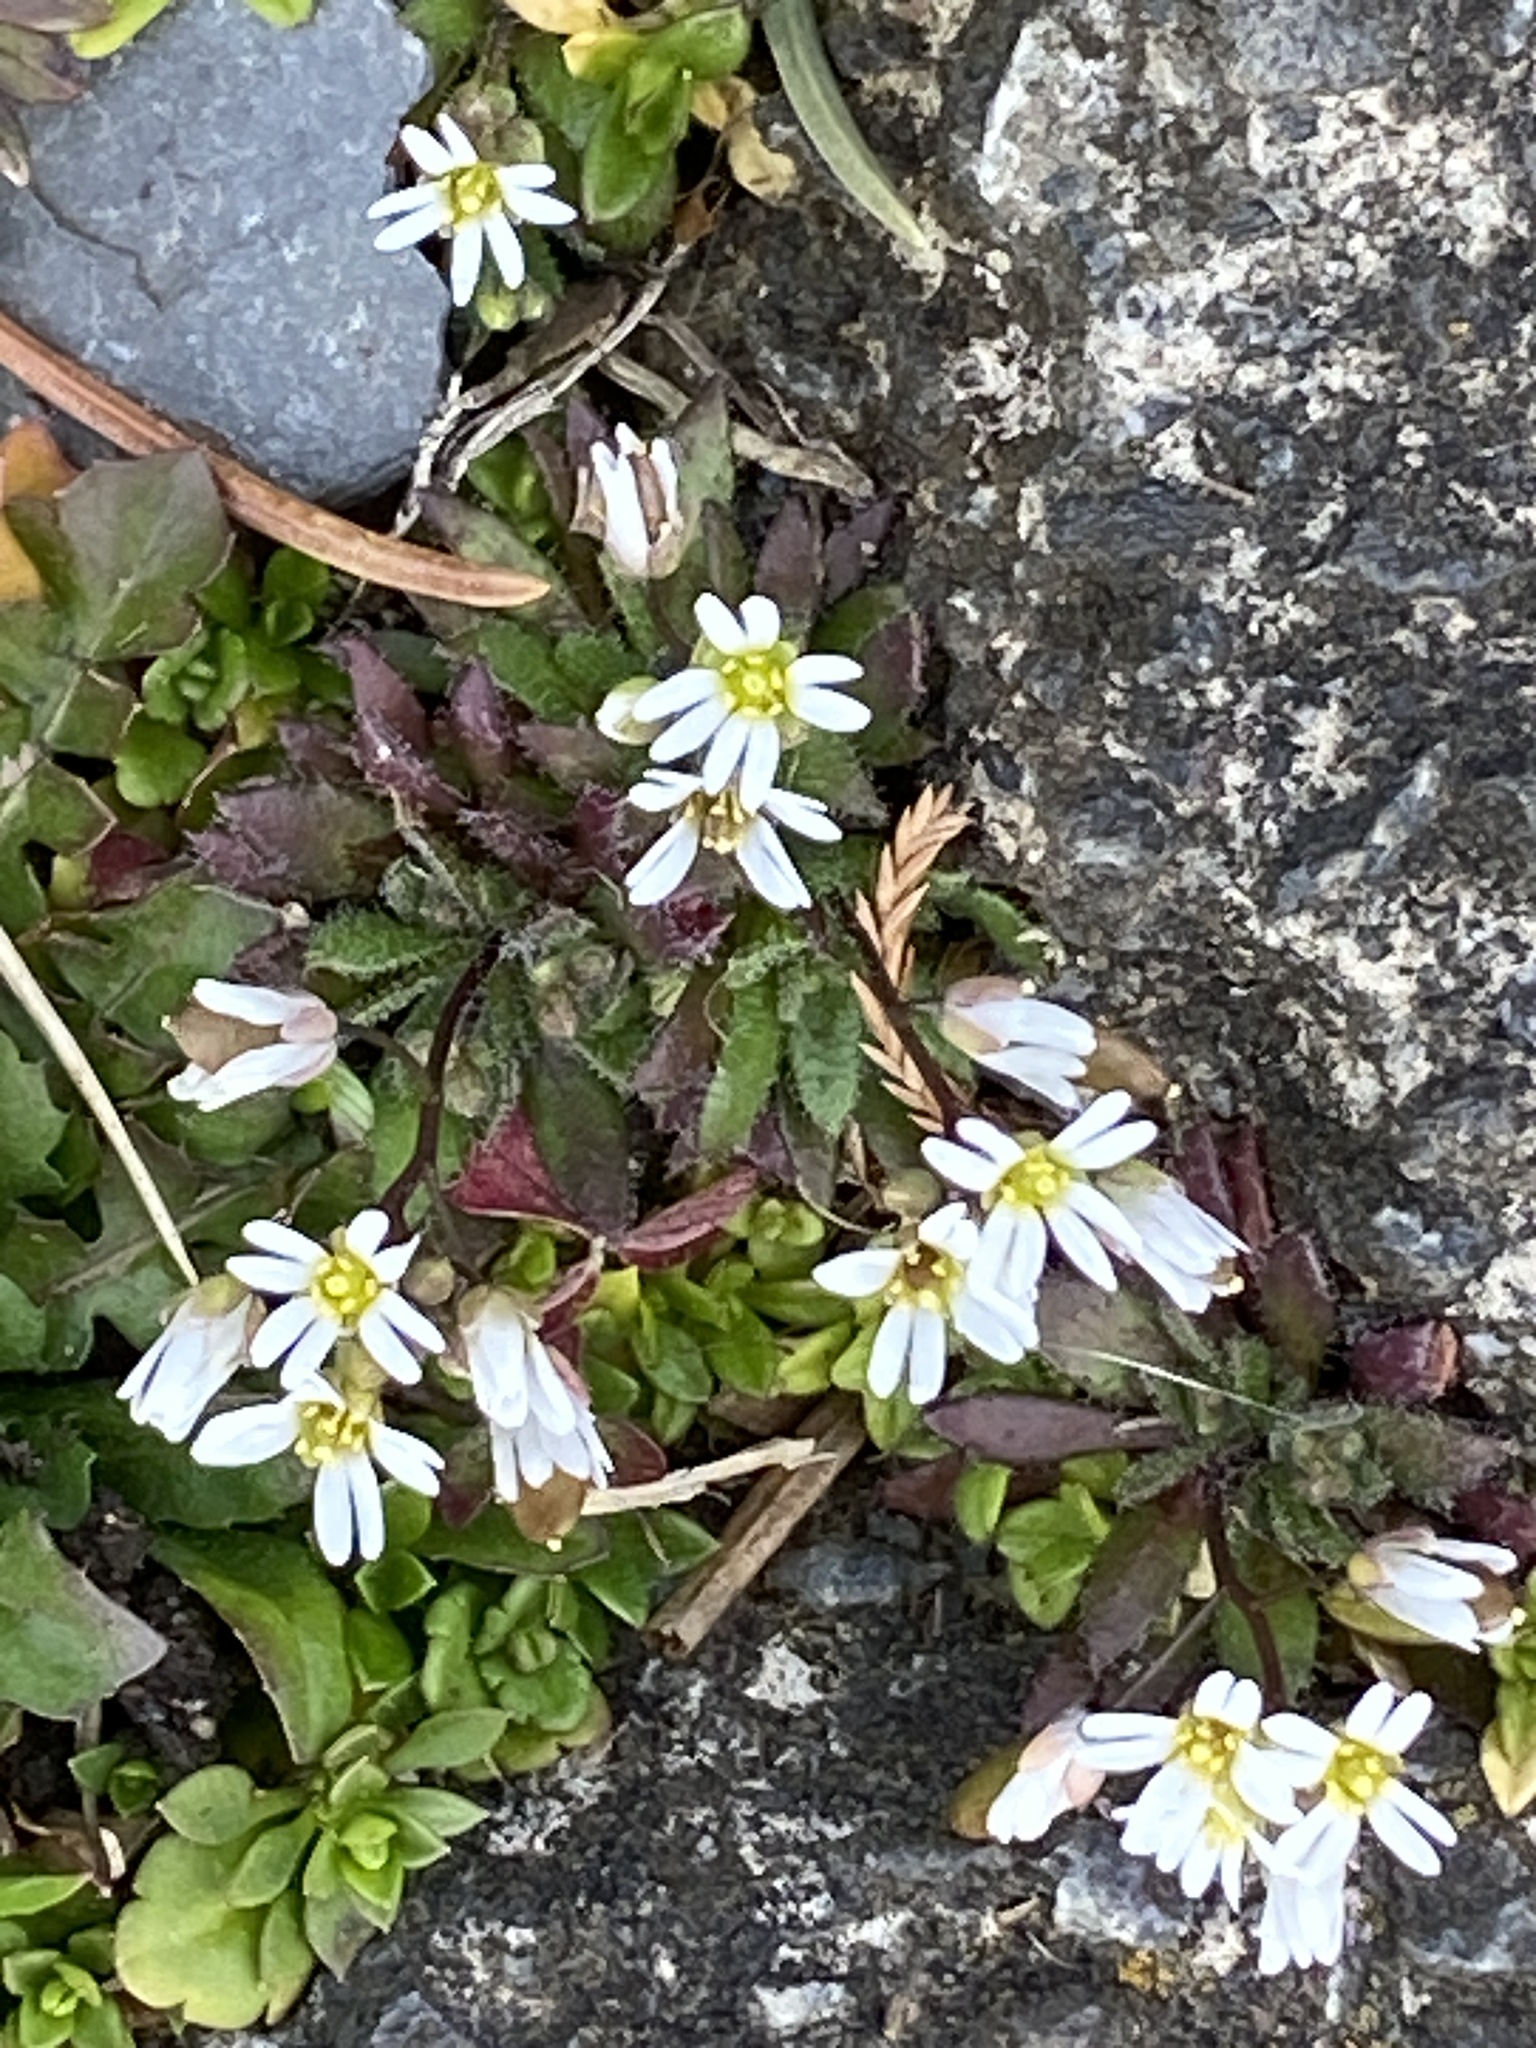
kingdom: Plantae
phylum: Tracheophyta
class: Magnoliopsida
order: Brassicales
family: Brassicaceae
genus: Draba
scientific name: Draba verna
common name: Spring draba
